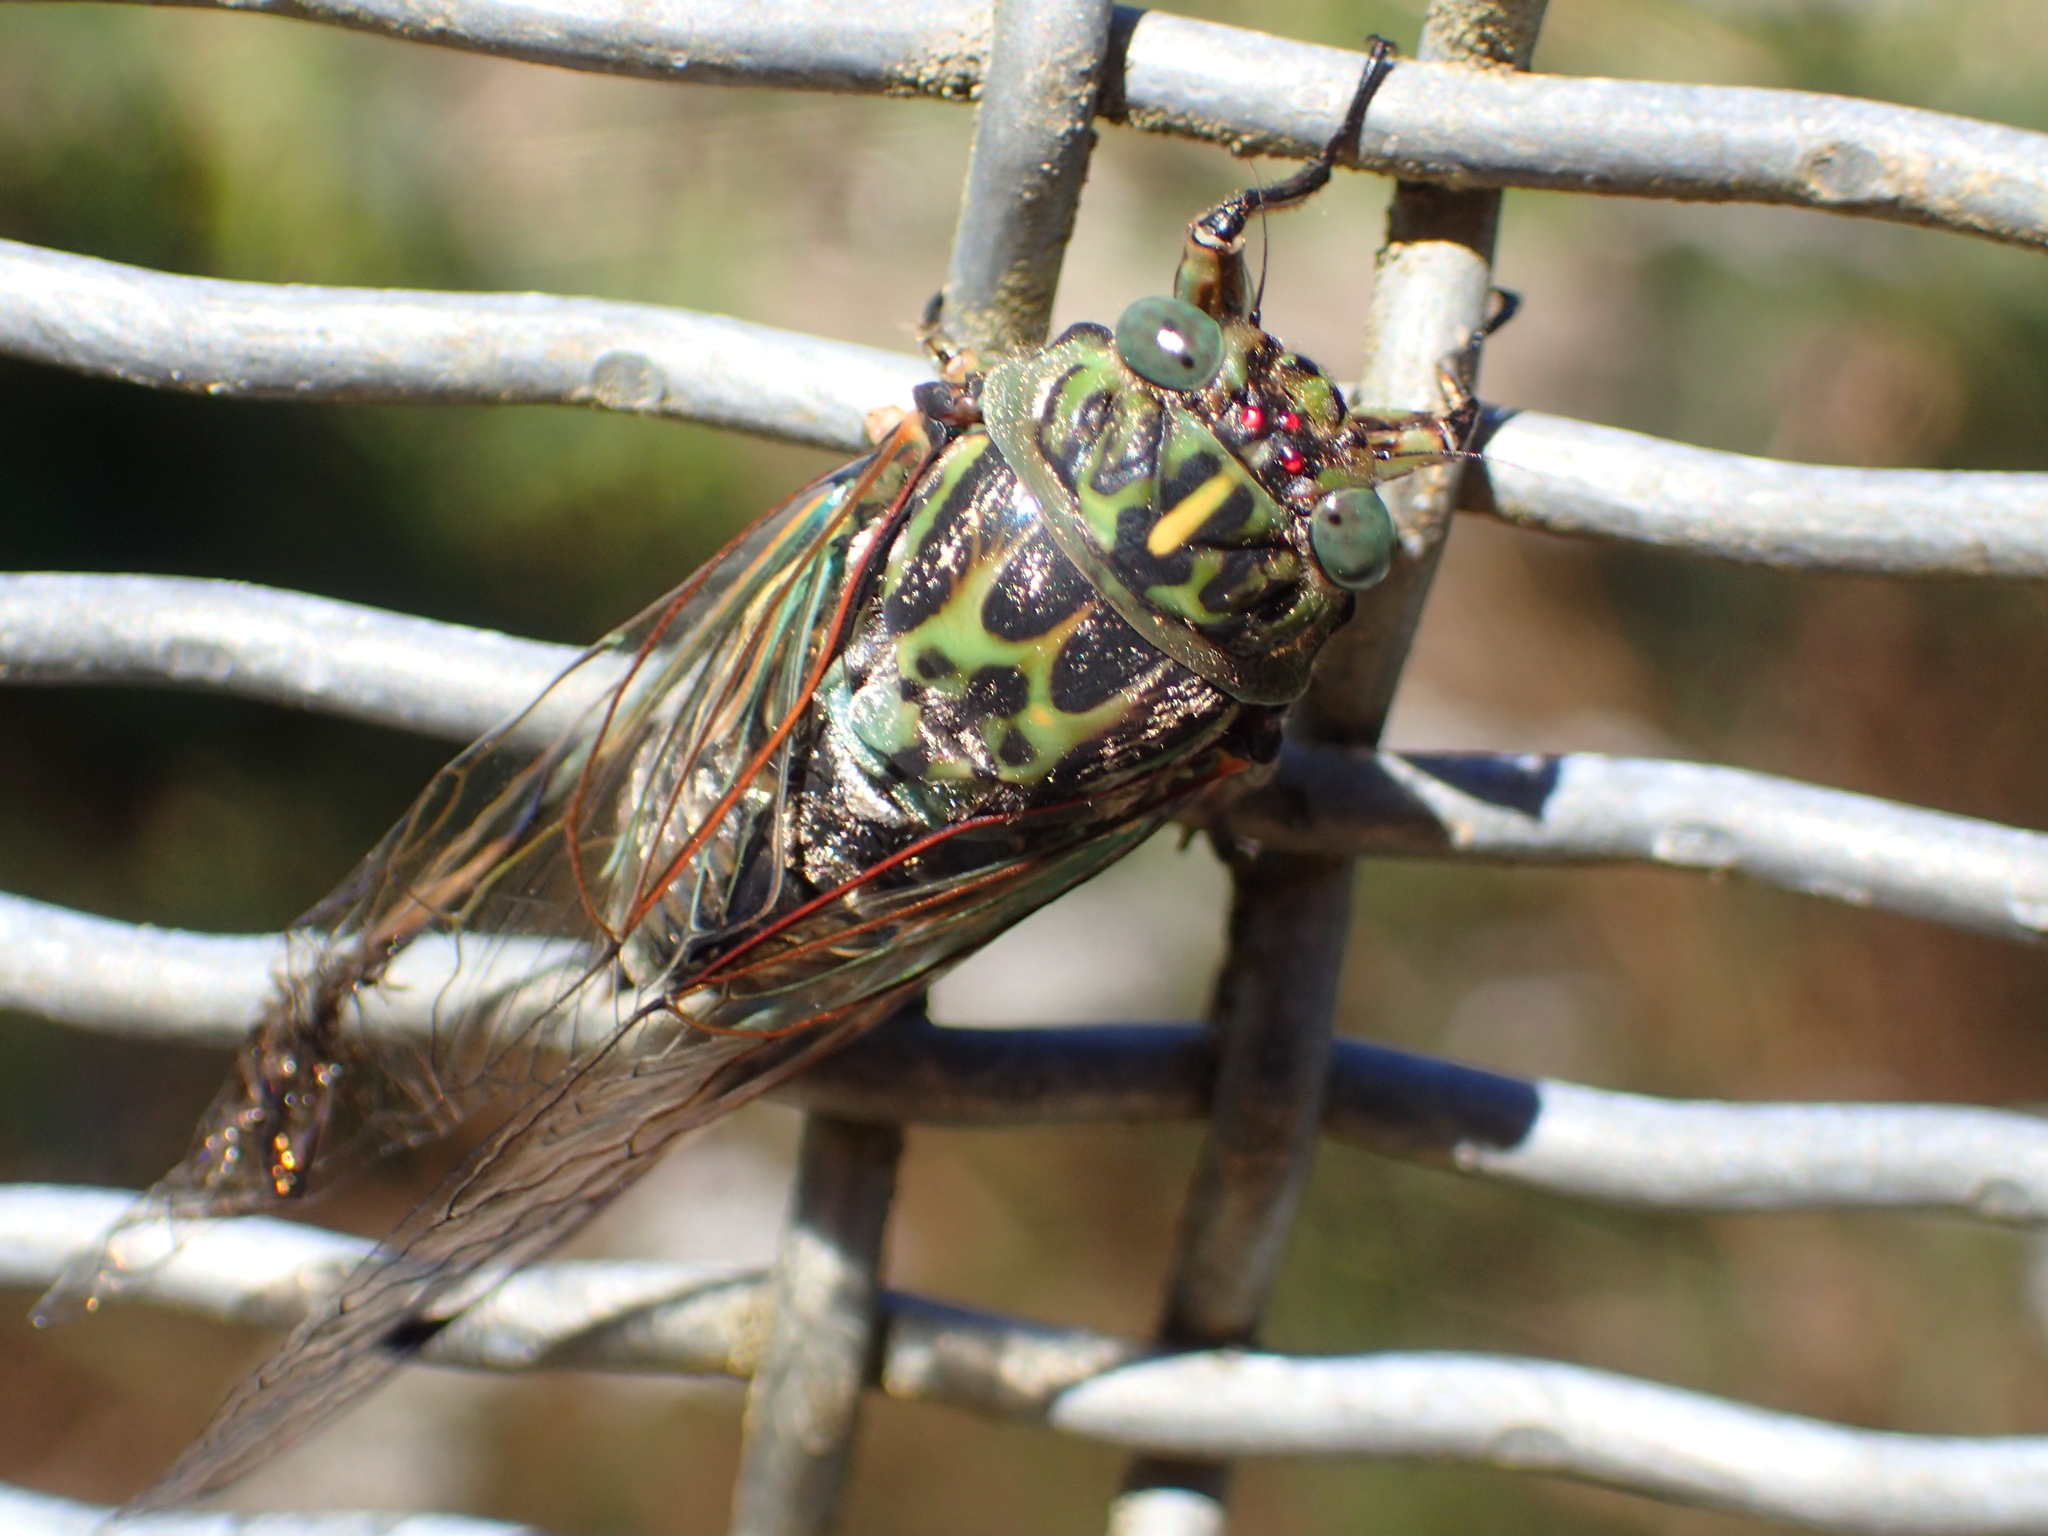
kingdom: Animalia
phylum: Arthropoda
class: Insecta
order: Hemiptera
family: Cicadidae
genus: Amphipsalta
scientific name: Amphipsalta zelandica
